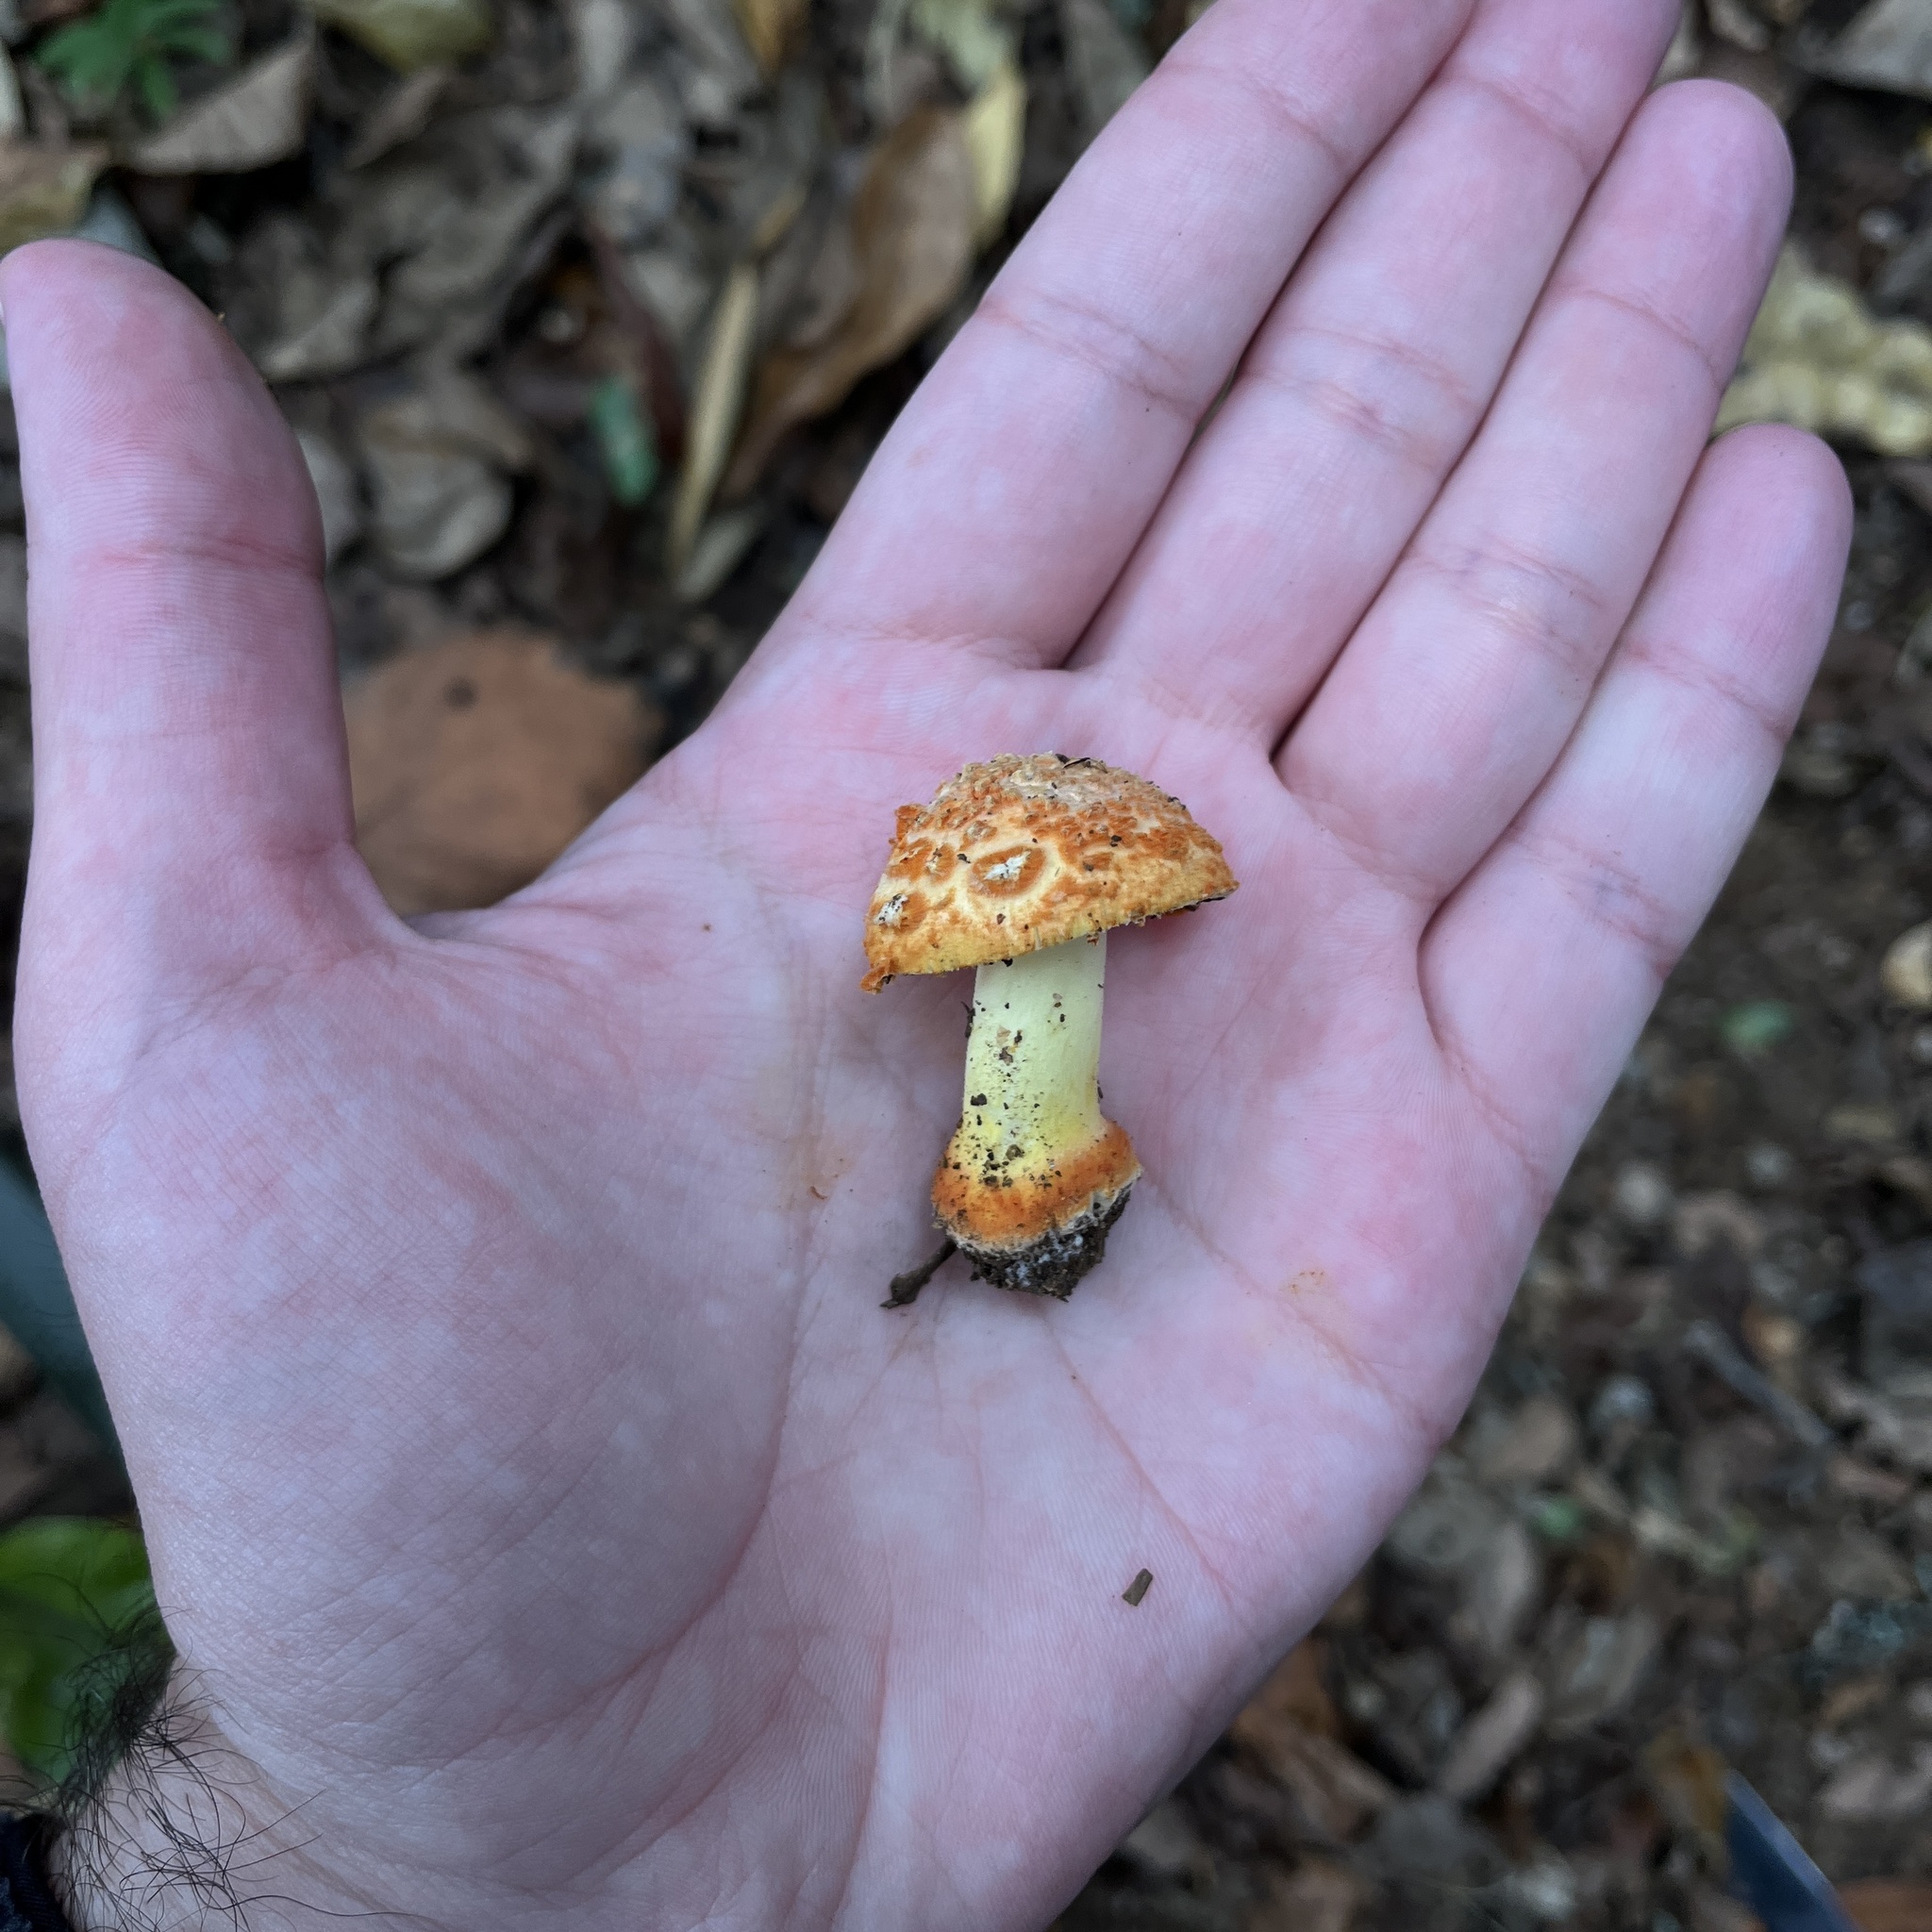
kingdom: Fungi
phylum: Basidiomycota
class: Agaricomycetes
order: Agaricales
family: Amanitaceae
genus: Amanita
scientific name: Amanita aurantiovelata
